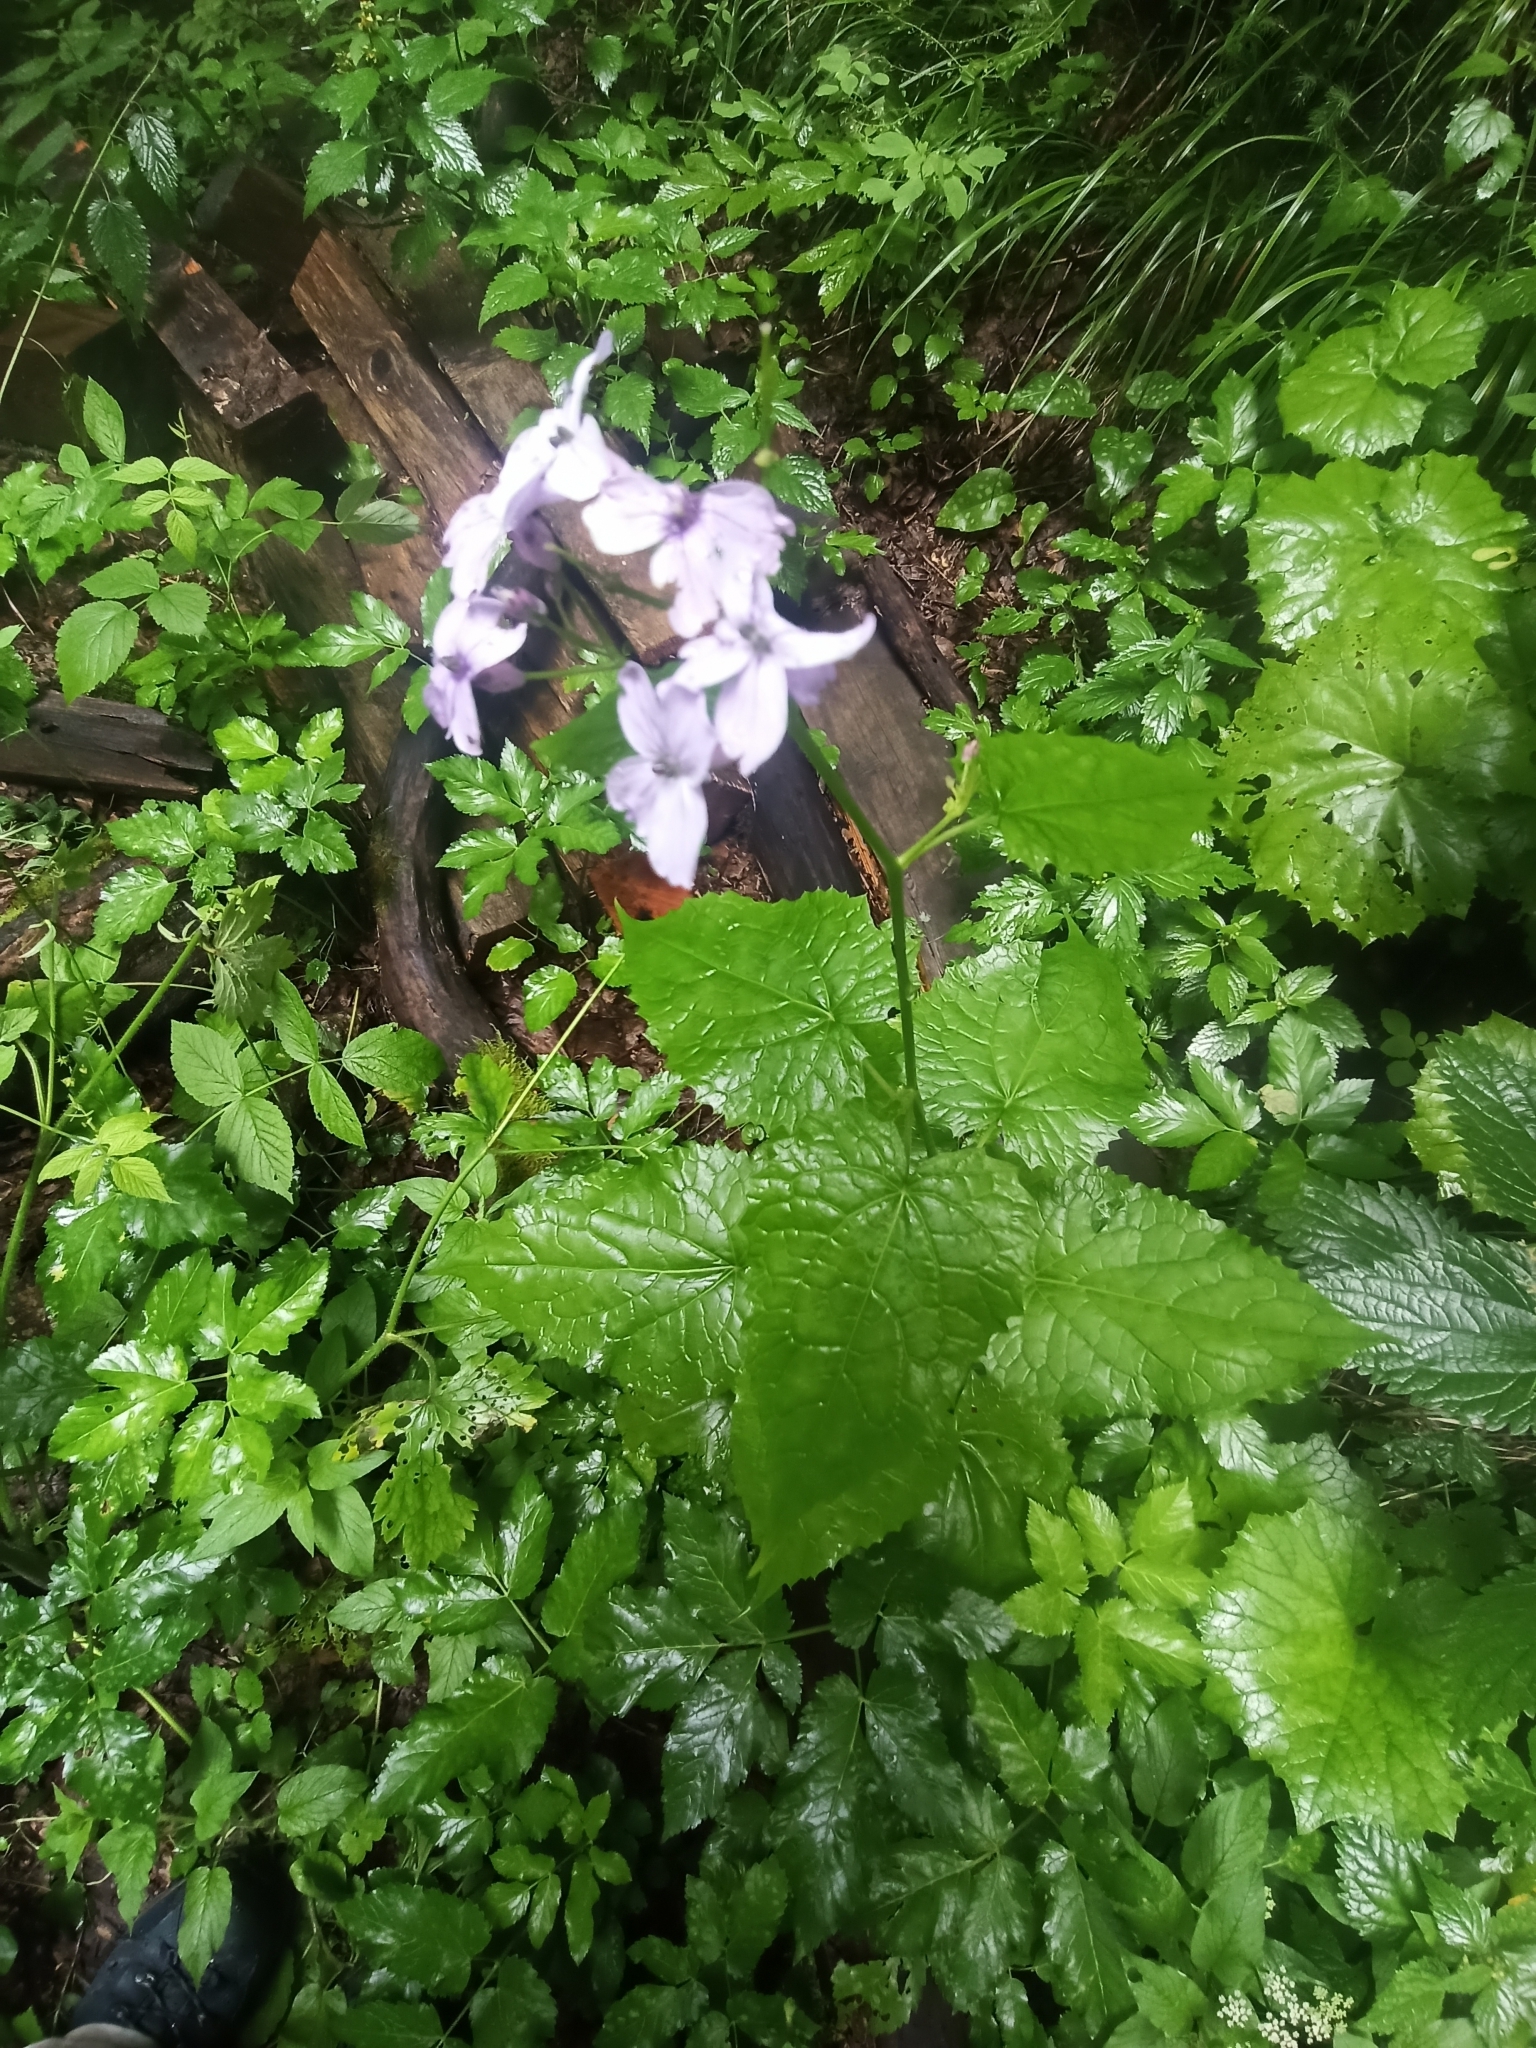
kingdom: Plantae
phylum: Tracheophyta
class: Magnoliopsida
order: Brassicales
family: Brassicaceae
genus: Lunaria
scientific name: Lunaria rediviva
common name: Perennial honesty
